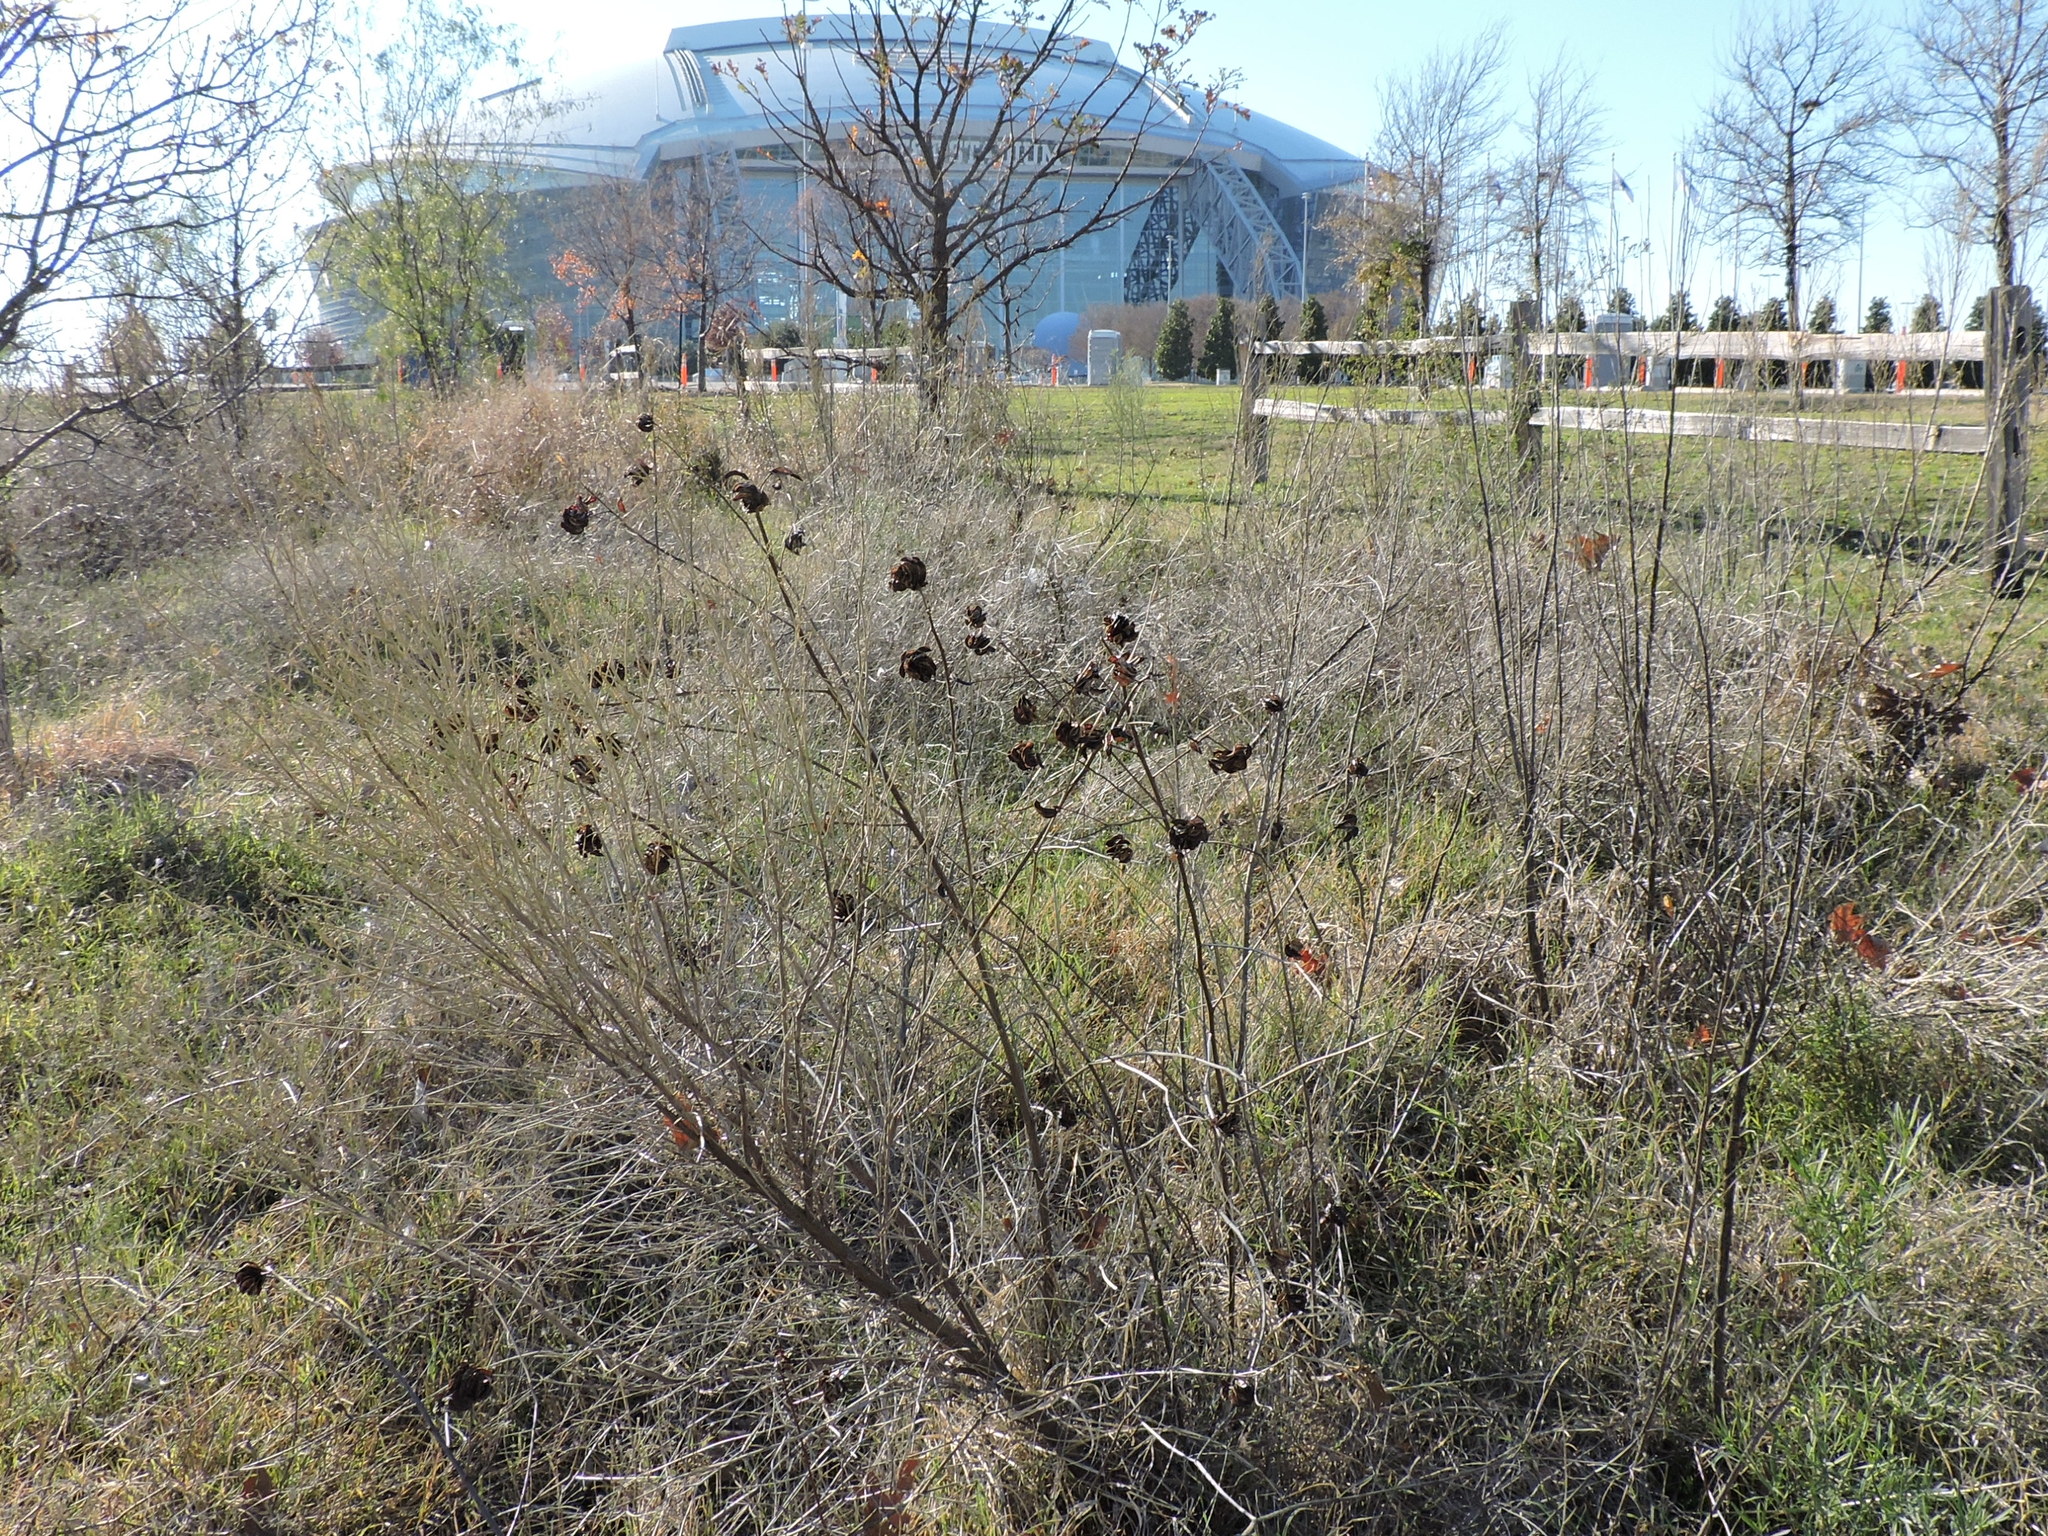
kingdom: Plantae
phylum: Tracheophyta
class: Magnoliopsida
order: Fabales
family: Fabaceae
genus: Desmanthus
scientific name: Desmanthus illinoensis
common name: Illinois bundle-flower
